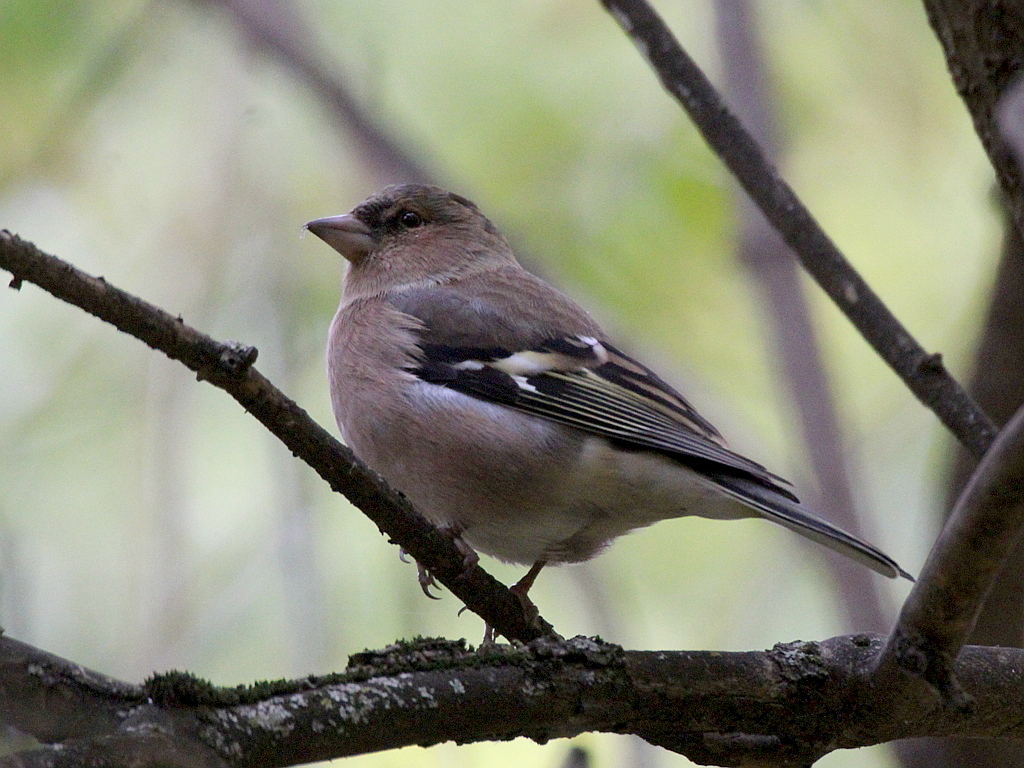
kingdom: Animalia
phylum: Chordata
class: Aves
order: Passeriformes
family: Fringillidae
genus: Fringilla
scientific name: Fringilla coelebs
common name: Common chaffinch
